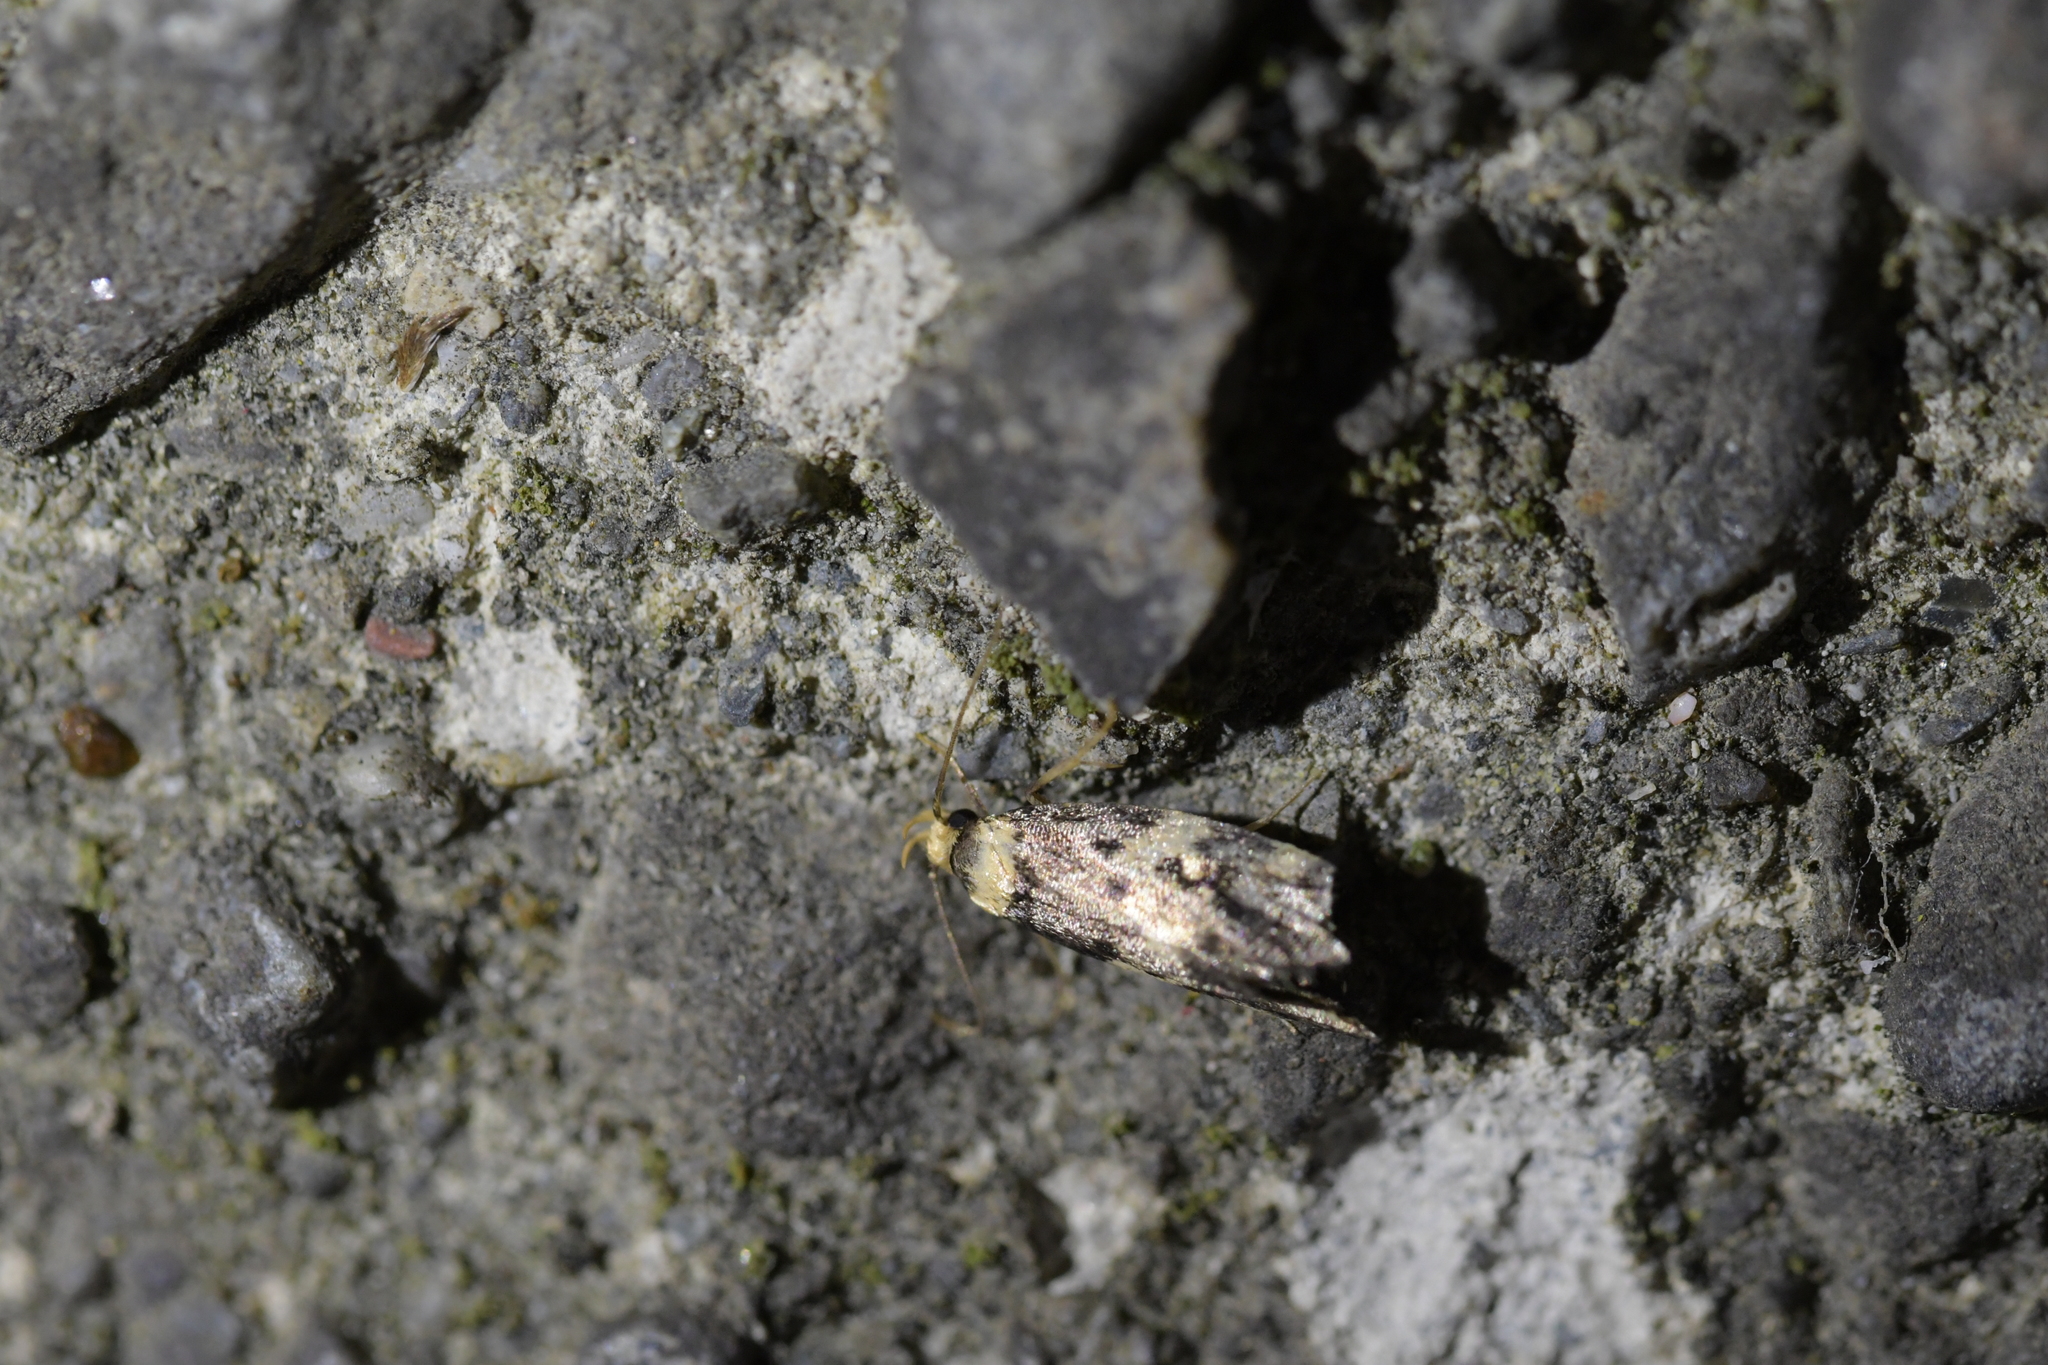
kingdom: Animalia
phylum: Arthropoda
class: Insecta
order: Lepidoptera
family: Oecophoridae
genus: Sphyrelata
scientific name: Sphyrelata amotella
